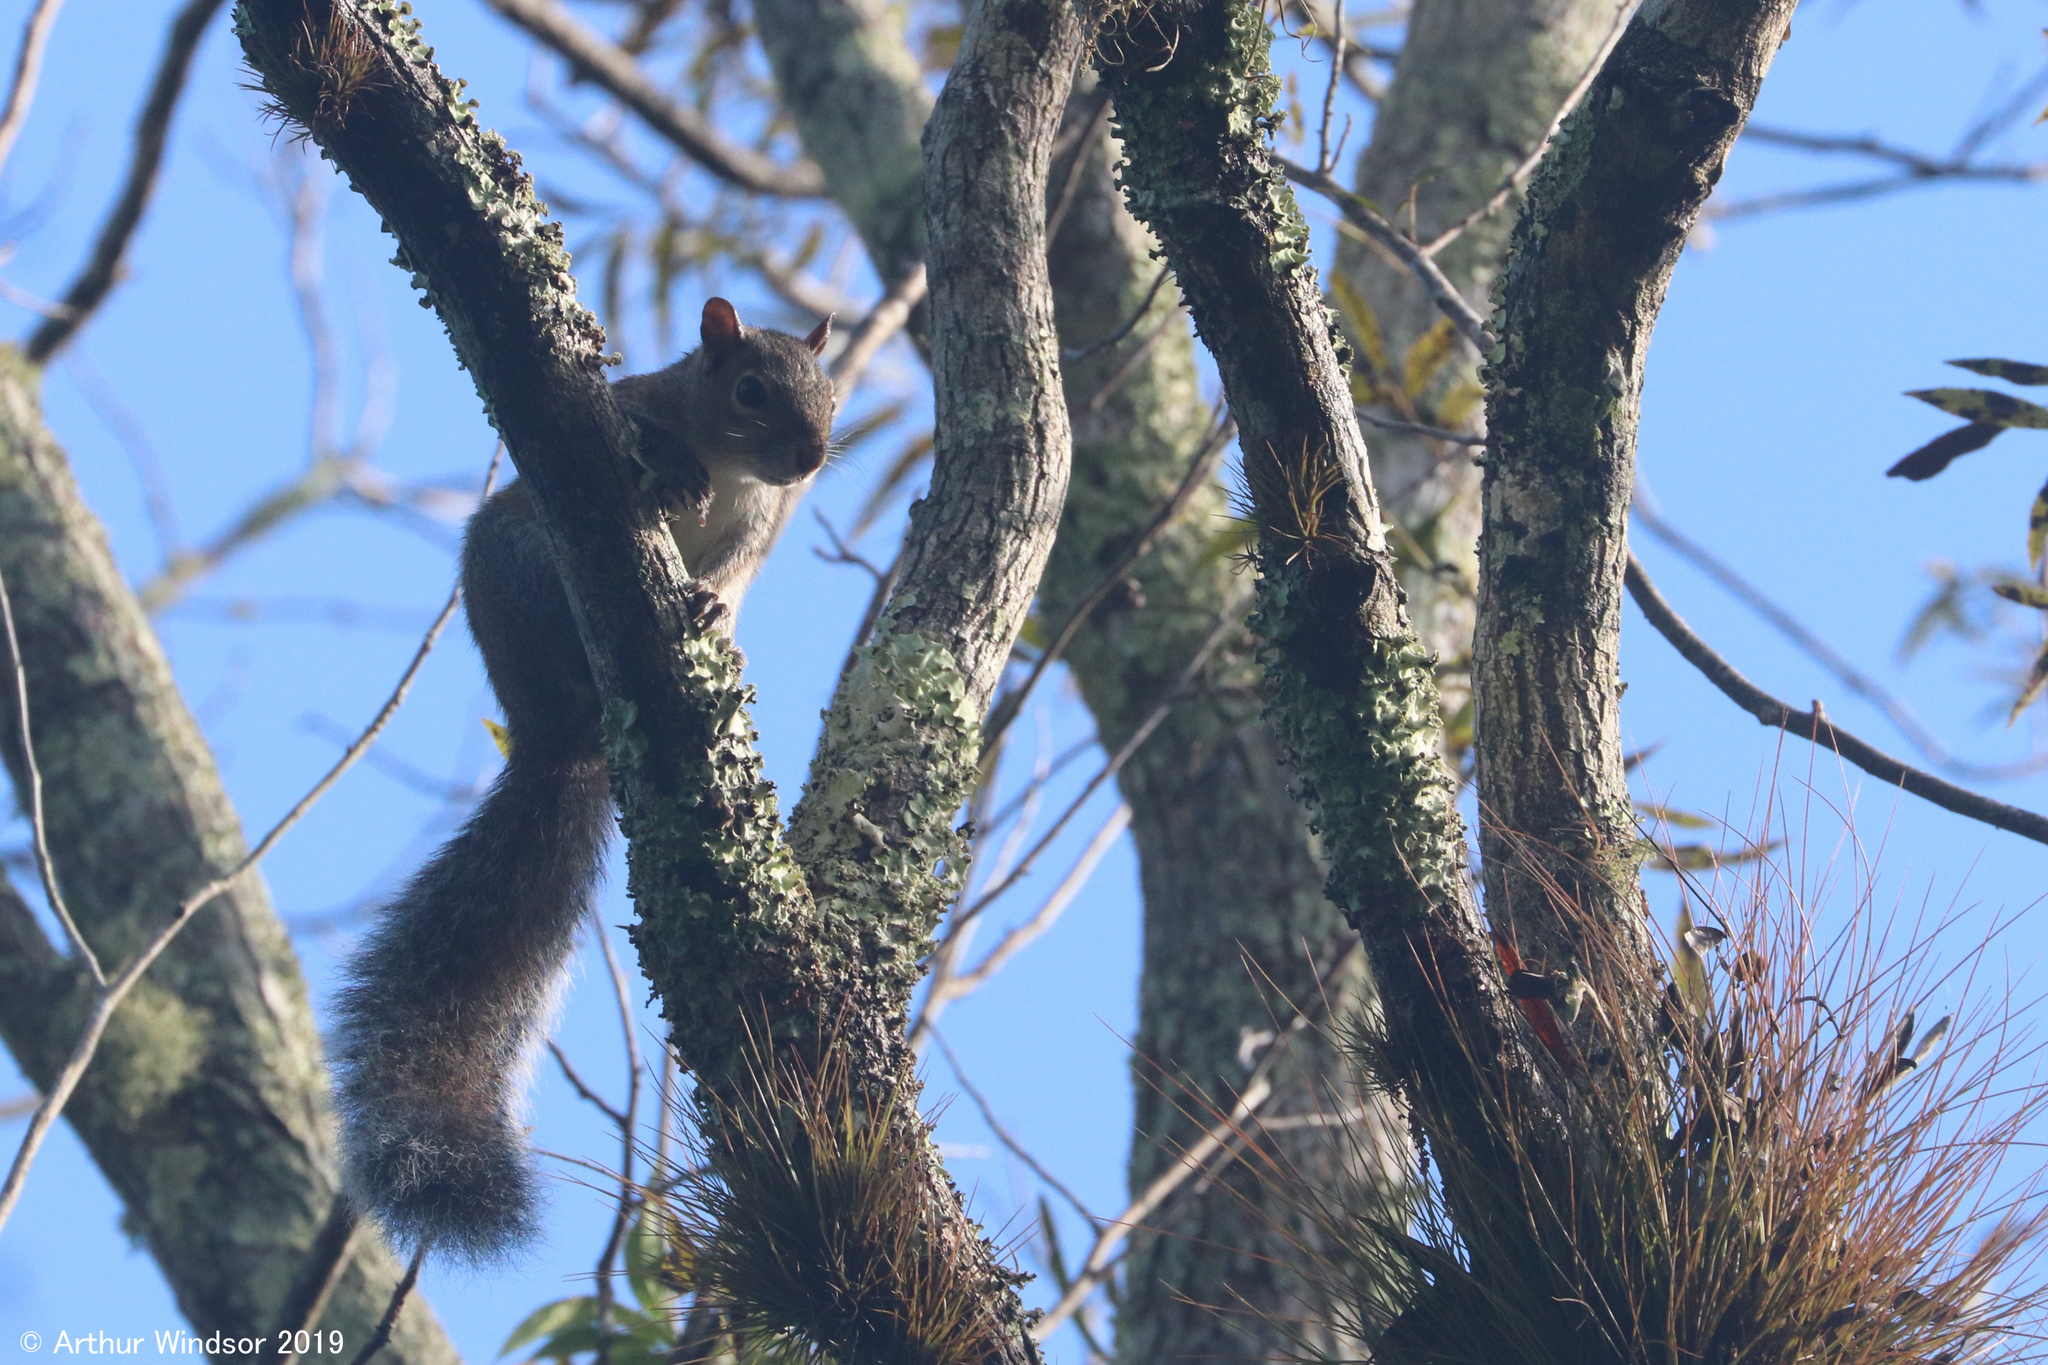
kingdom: Animalia
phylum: Chordata
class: Mammalia
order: Rodentia
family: Sciuridae
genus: Sciurus
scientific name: Sciurus carolinensis
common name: Eastern gray squirrel
